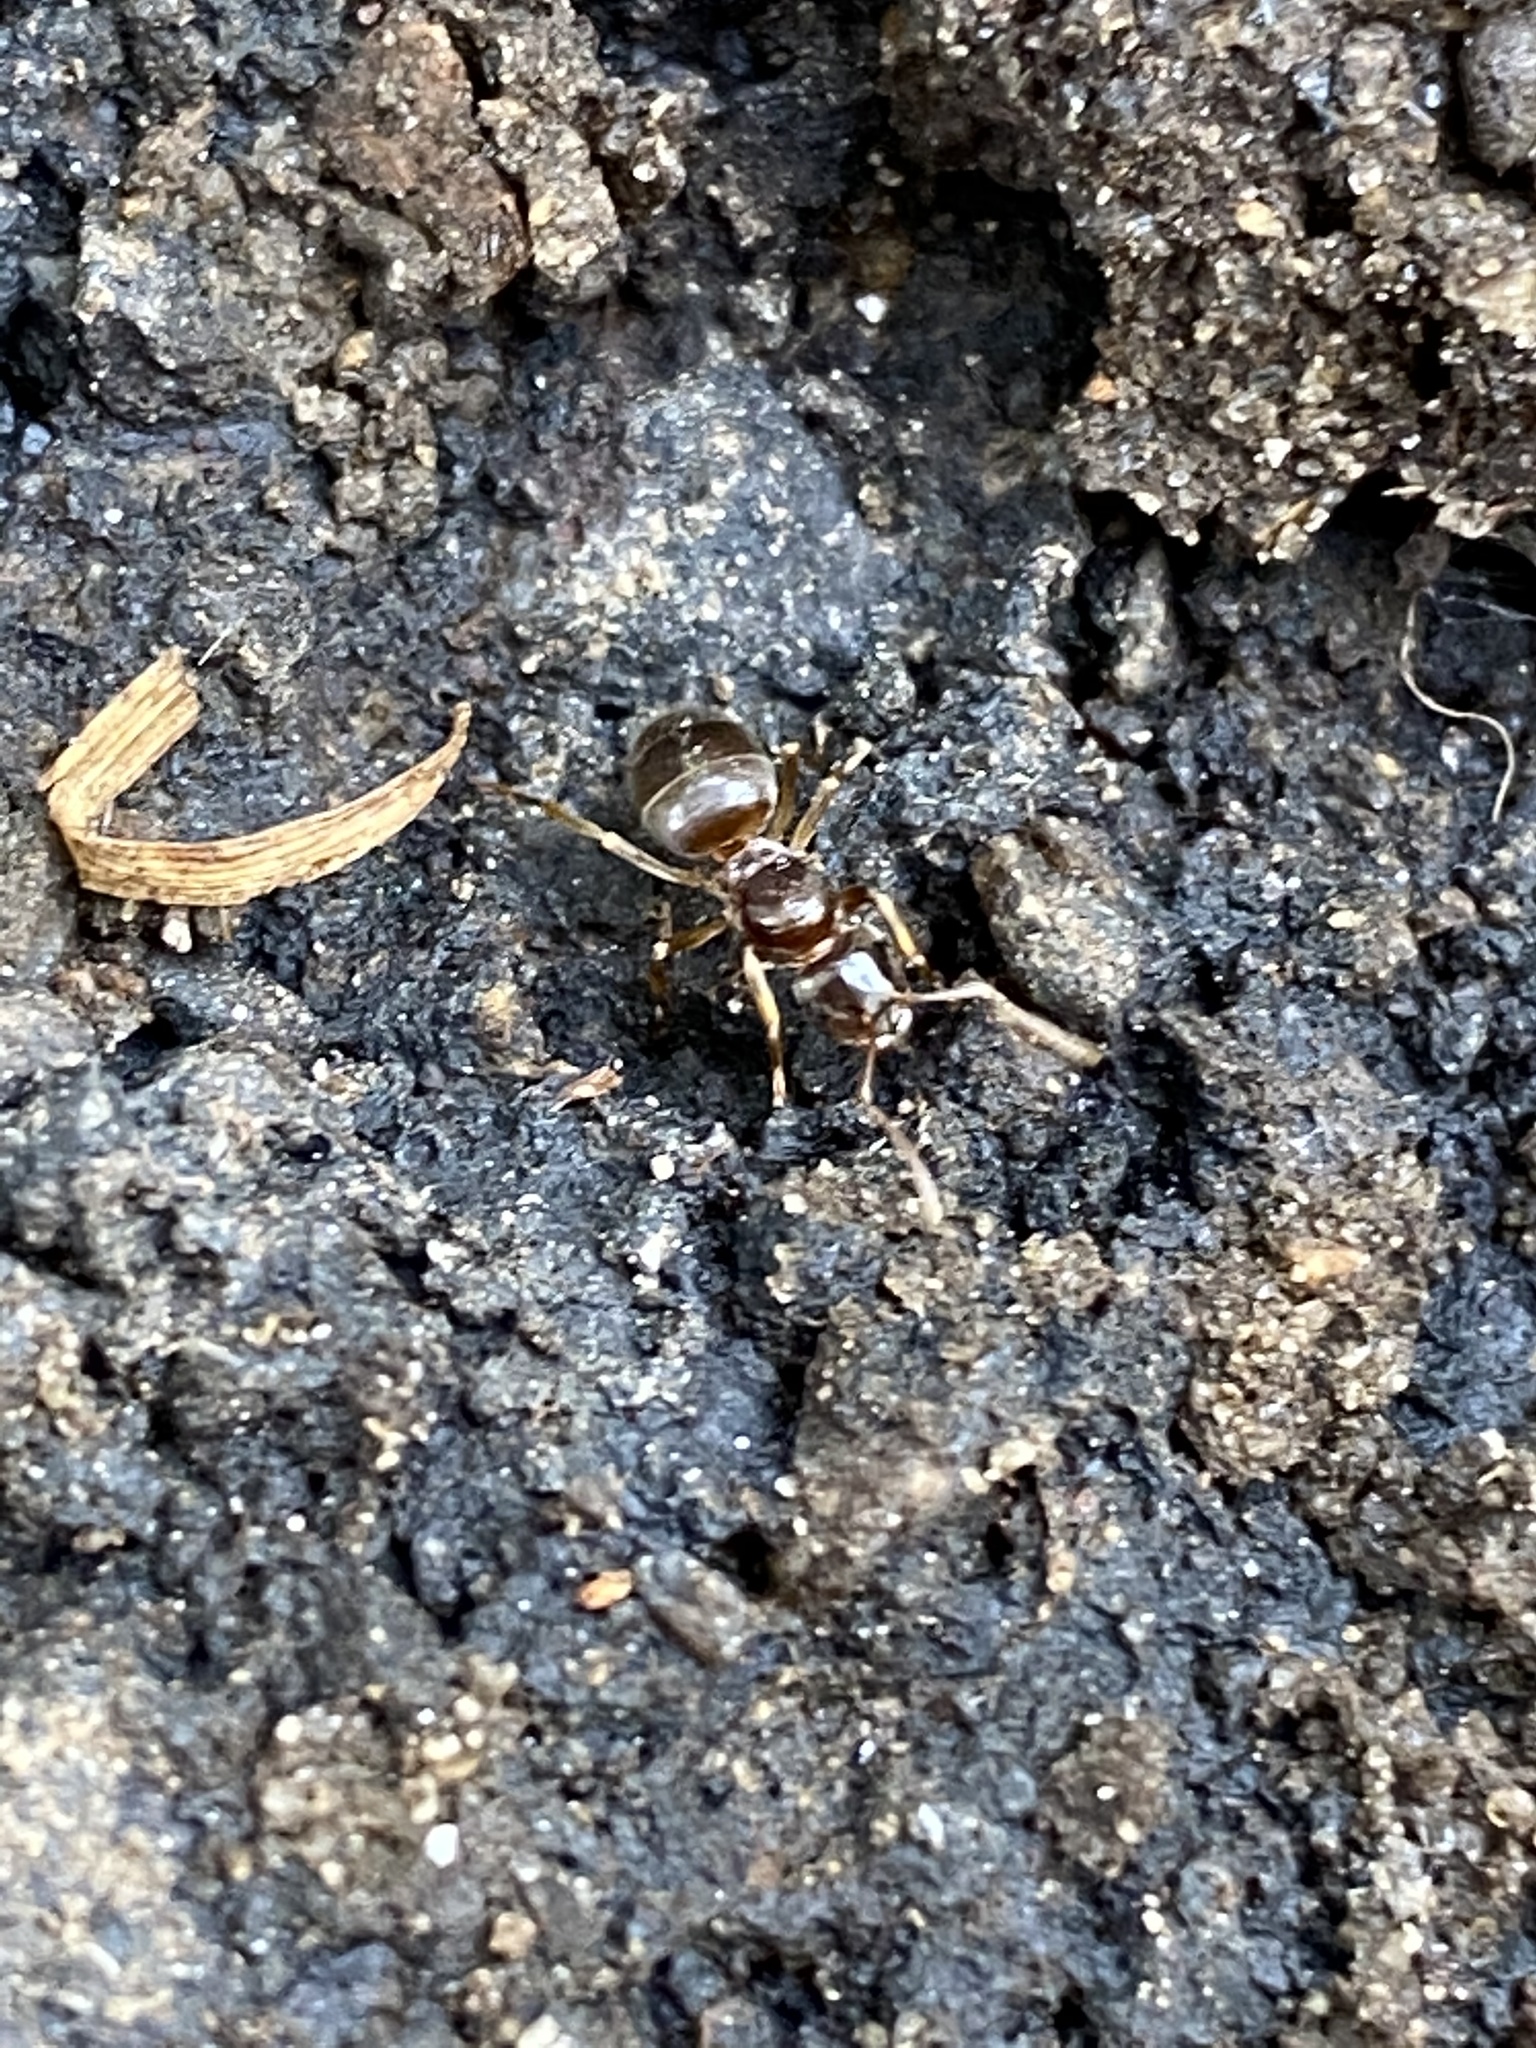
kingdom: Animalia
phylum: Arthropoda
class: Insecta
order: Hymenoptera
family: Formicidae
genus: Lasius
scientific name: Lasius aphidicola
